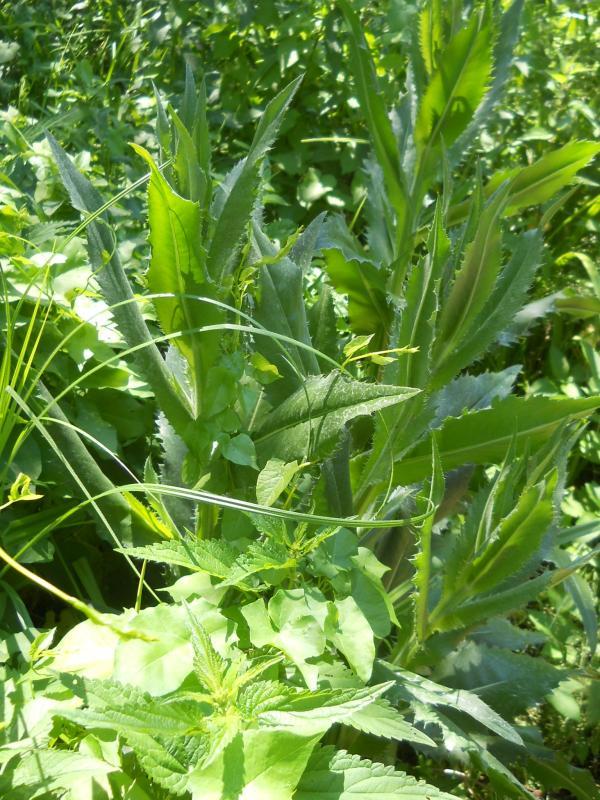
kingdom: Plantae
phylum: Tracheophyta
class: Magnoliopsida
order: Asterales
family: Asteraceae
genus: Cirsium
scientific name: Cirsium canum
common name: Queen anne's thistle
